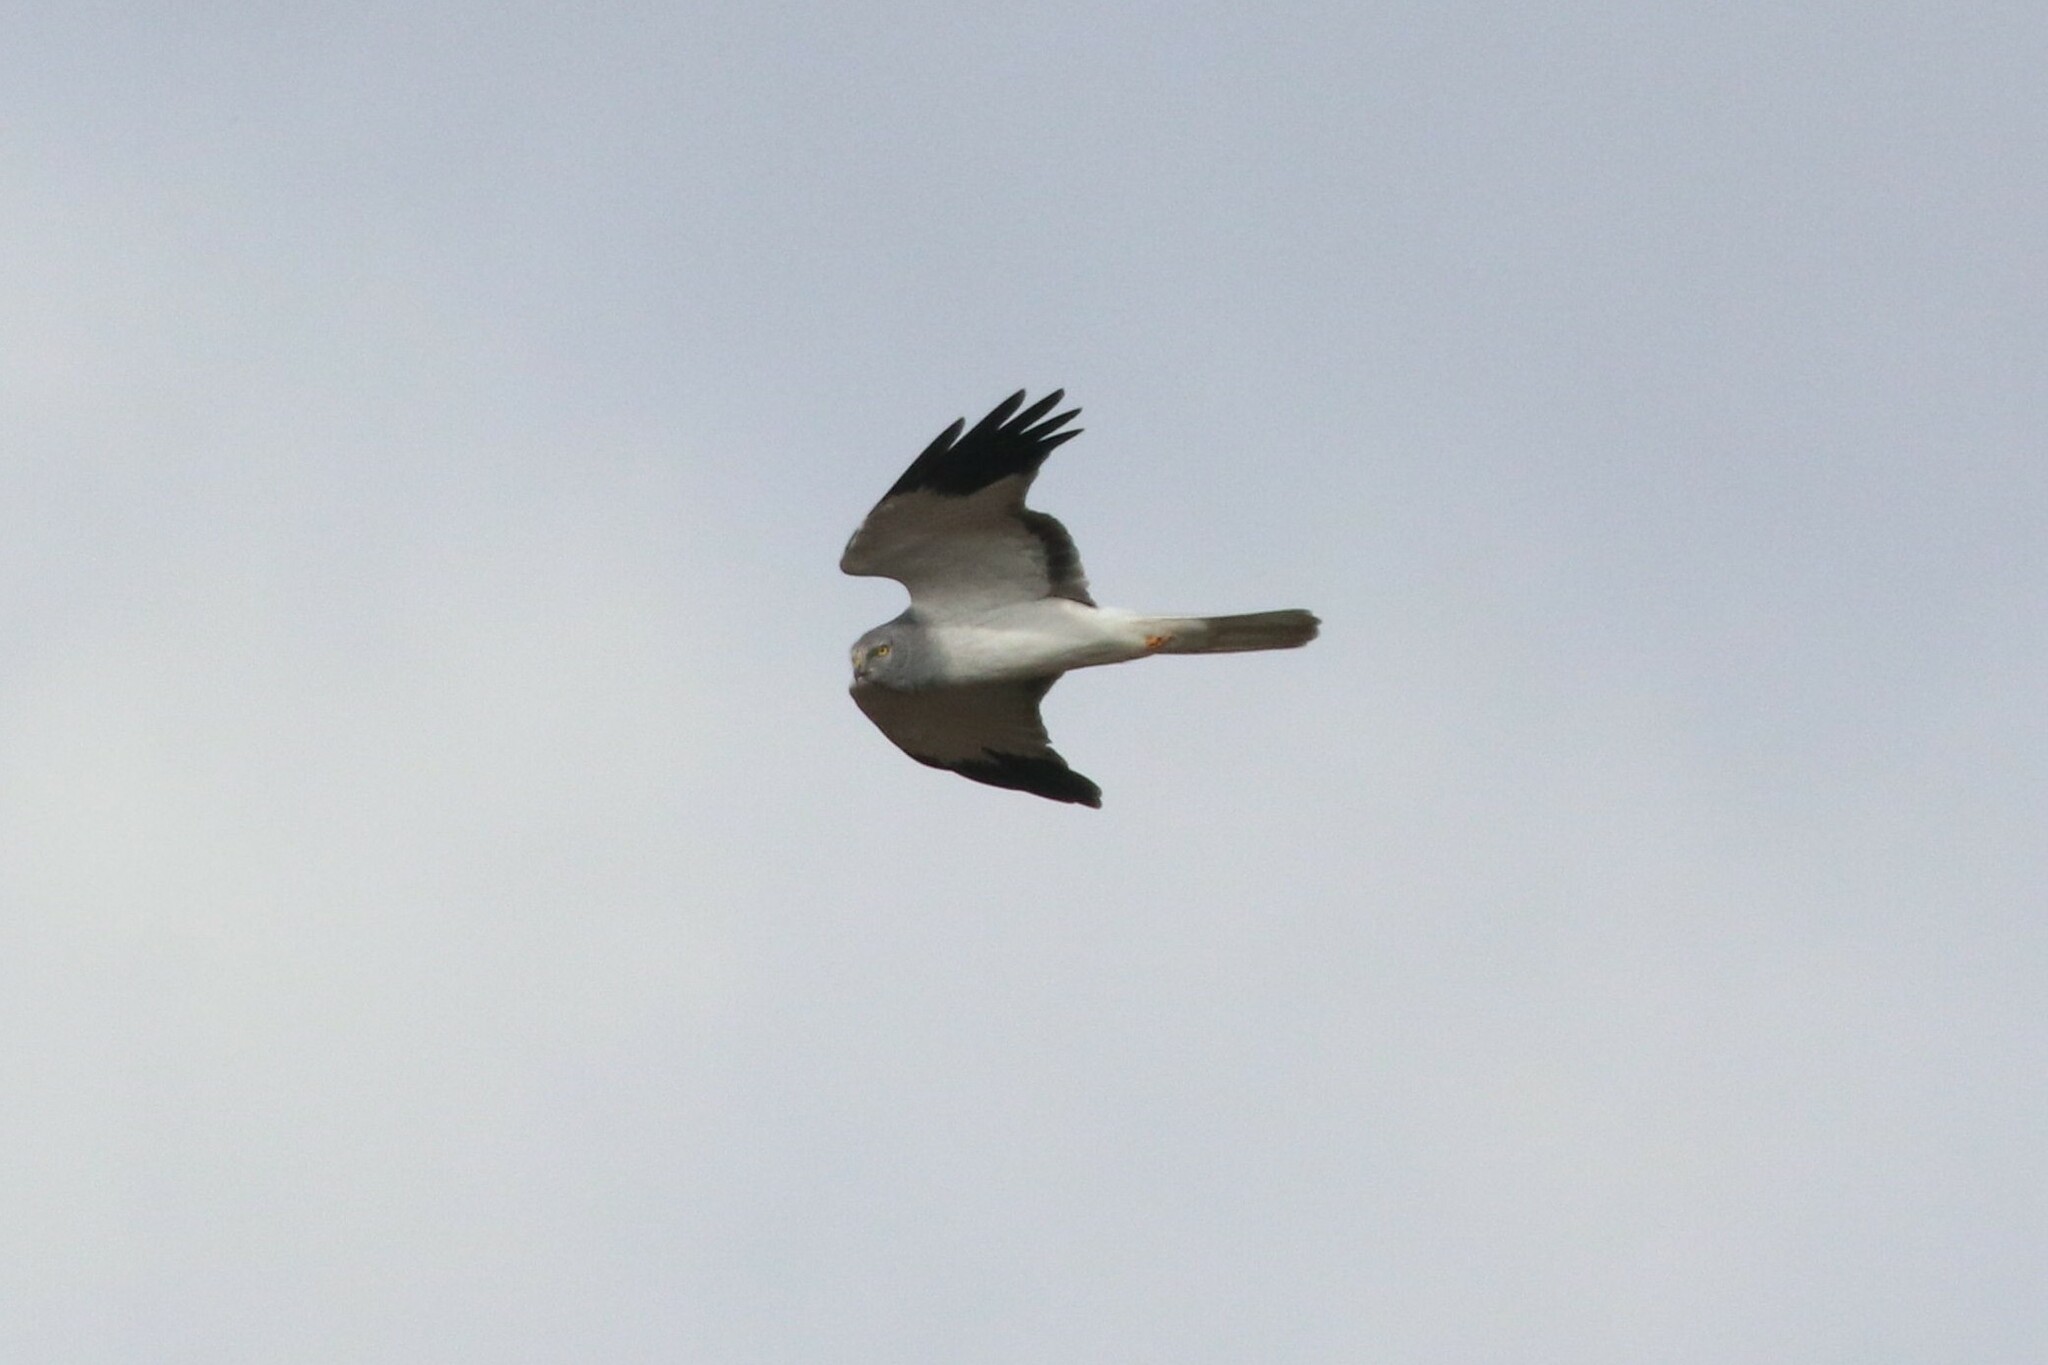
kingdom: Animalia
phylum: Chordata
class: Aves
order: Accipitriformes
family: Accipitridae
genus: Circus
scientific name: Circus cyaneus
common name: Hen harrier
